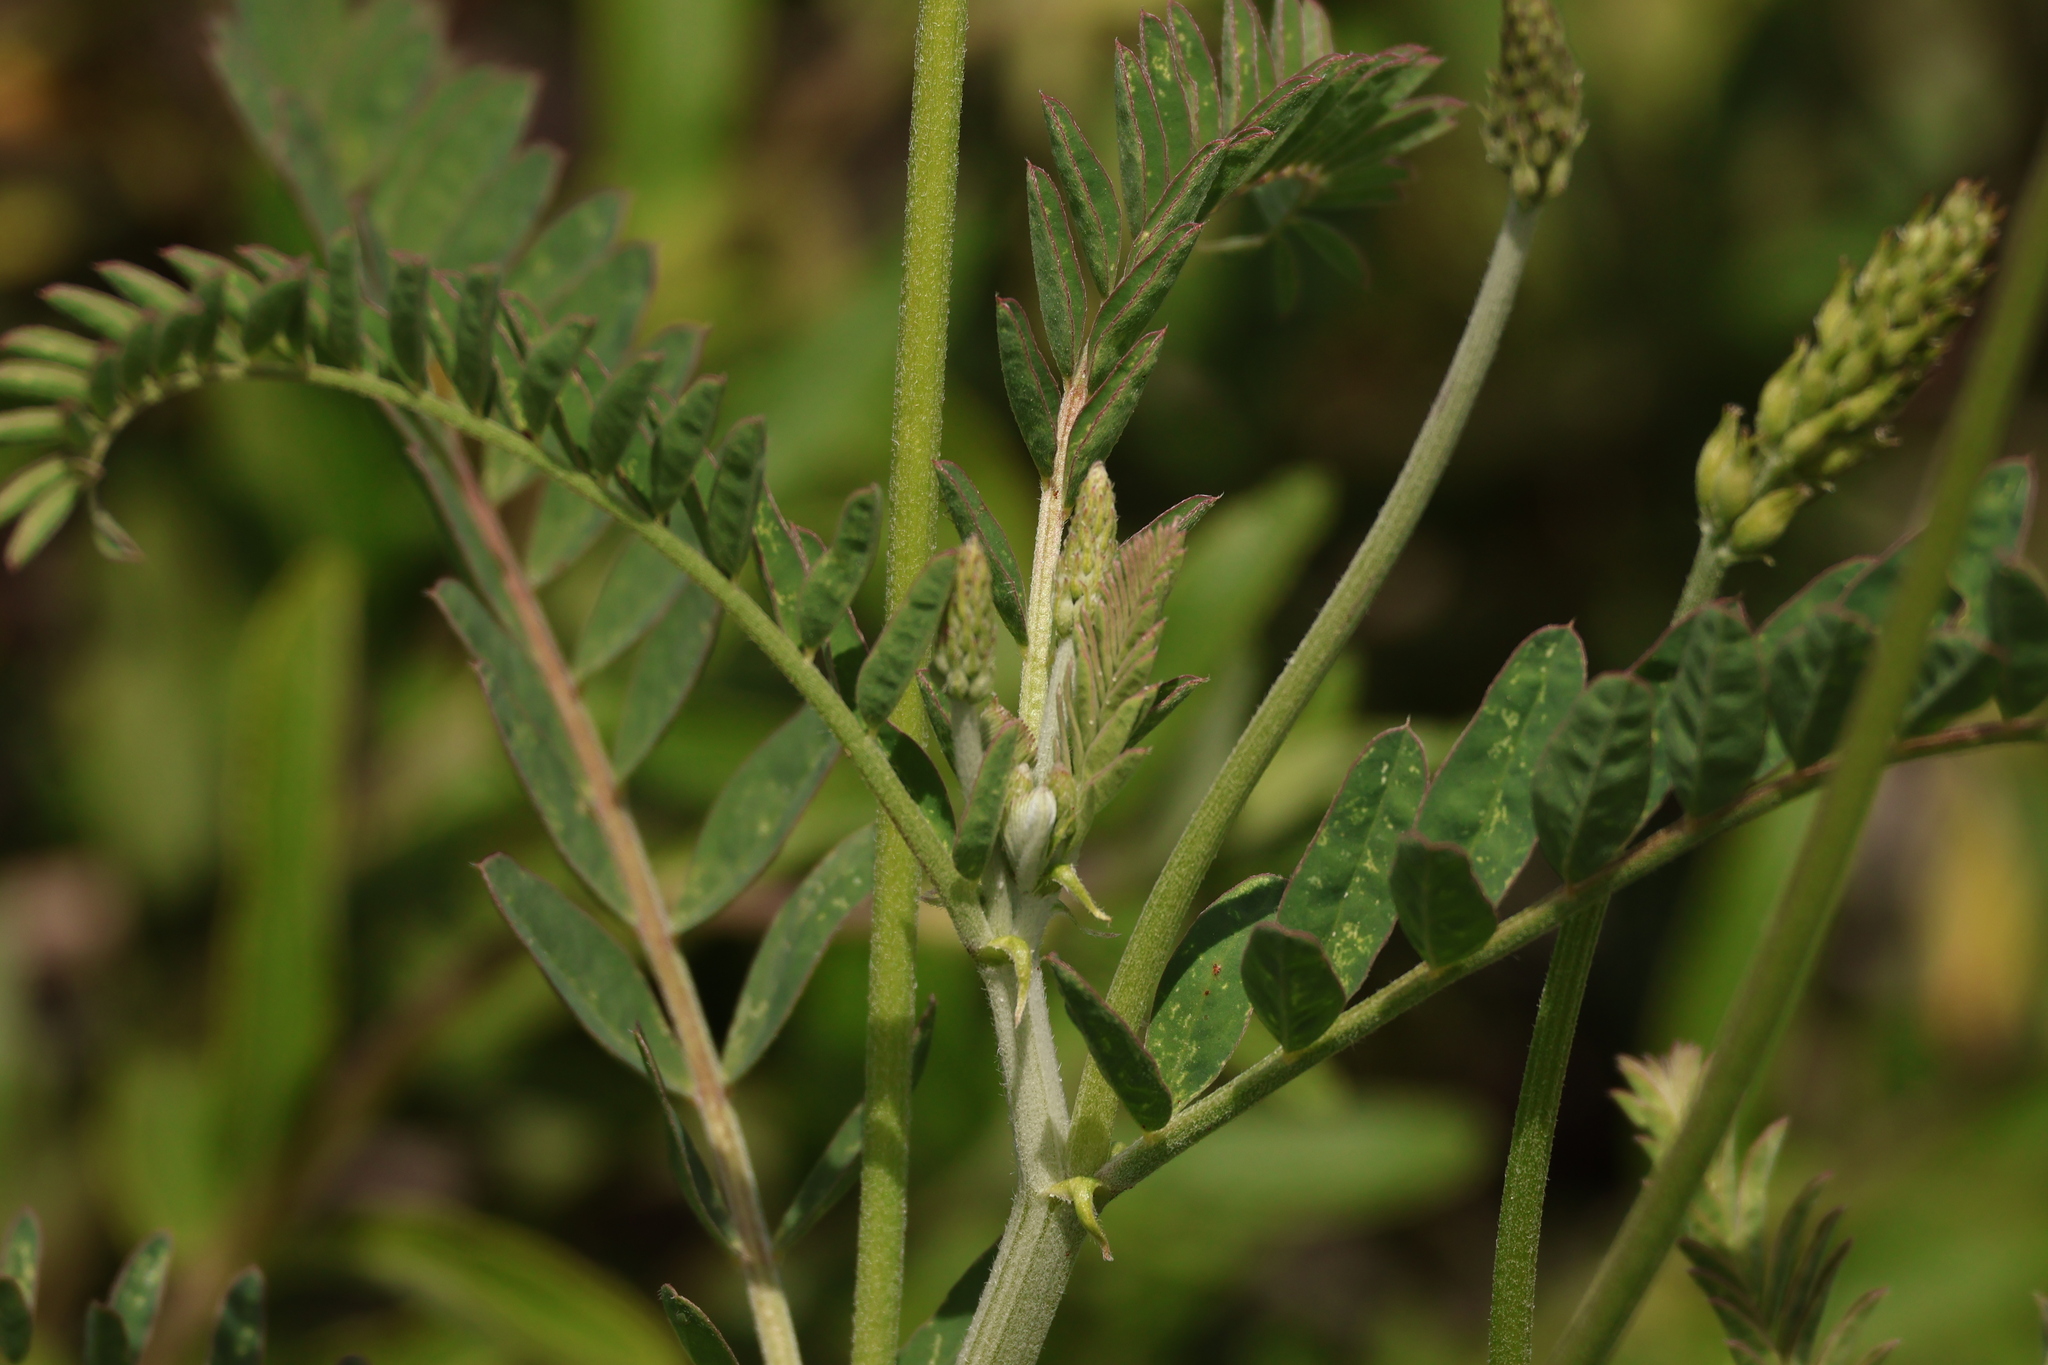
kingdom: Plantae
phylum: Tracheophyta
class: Magnoliopsida
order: Fabales
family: Fabaceae
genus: Astragalus
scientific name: Astragalus trichopodus
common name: Santa barbara milk-vetch
